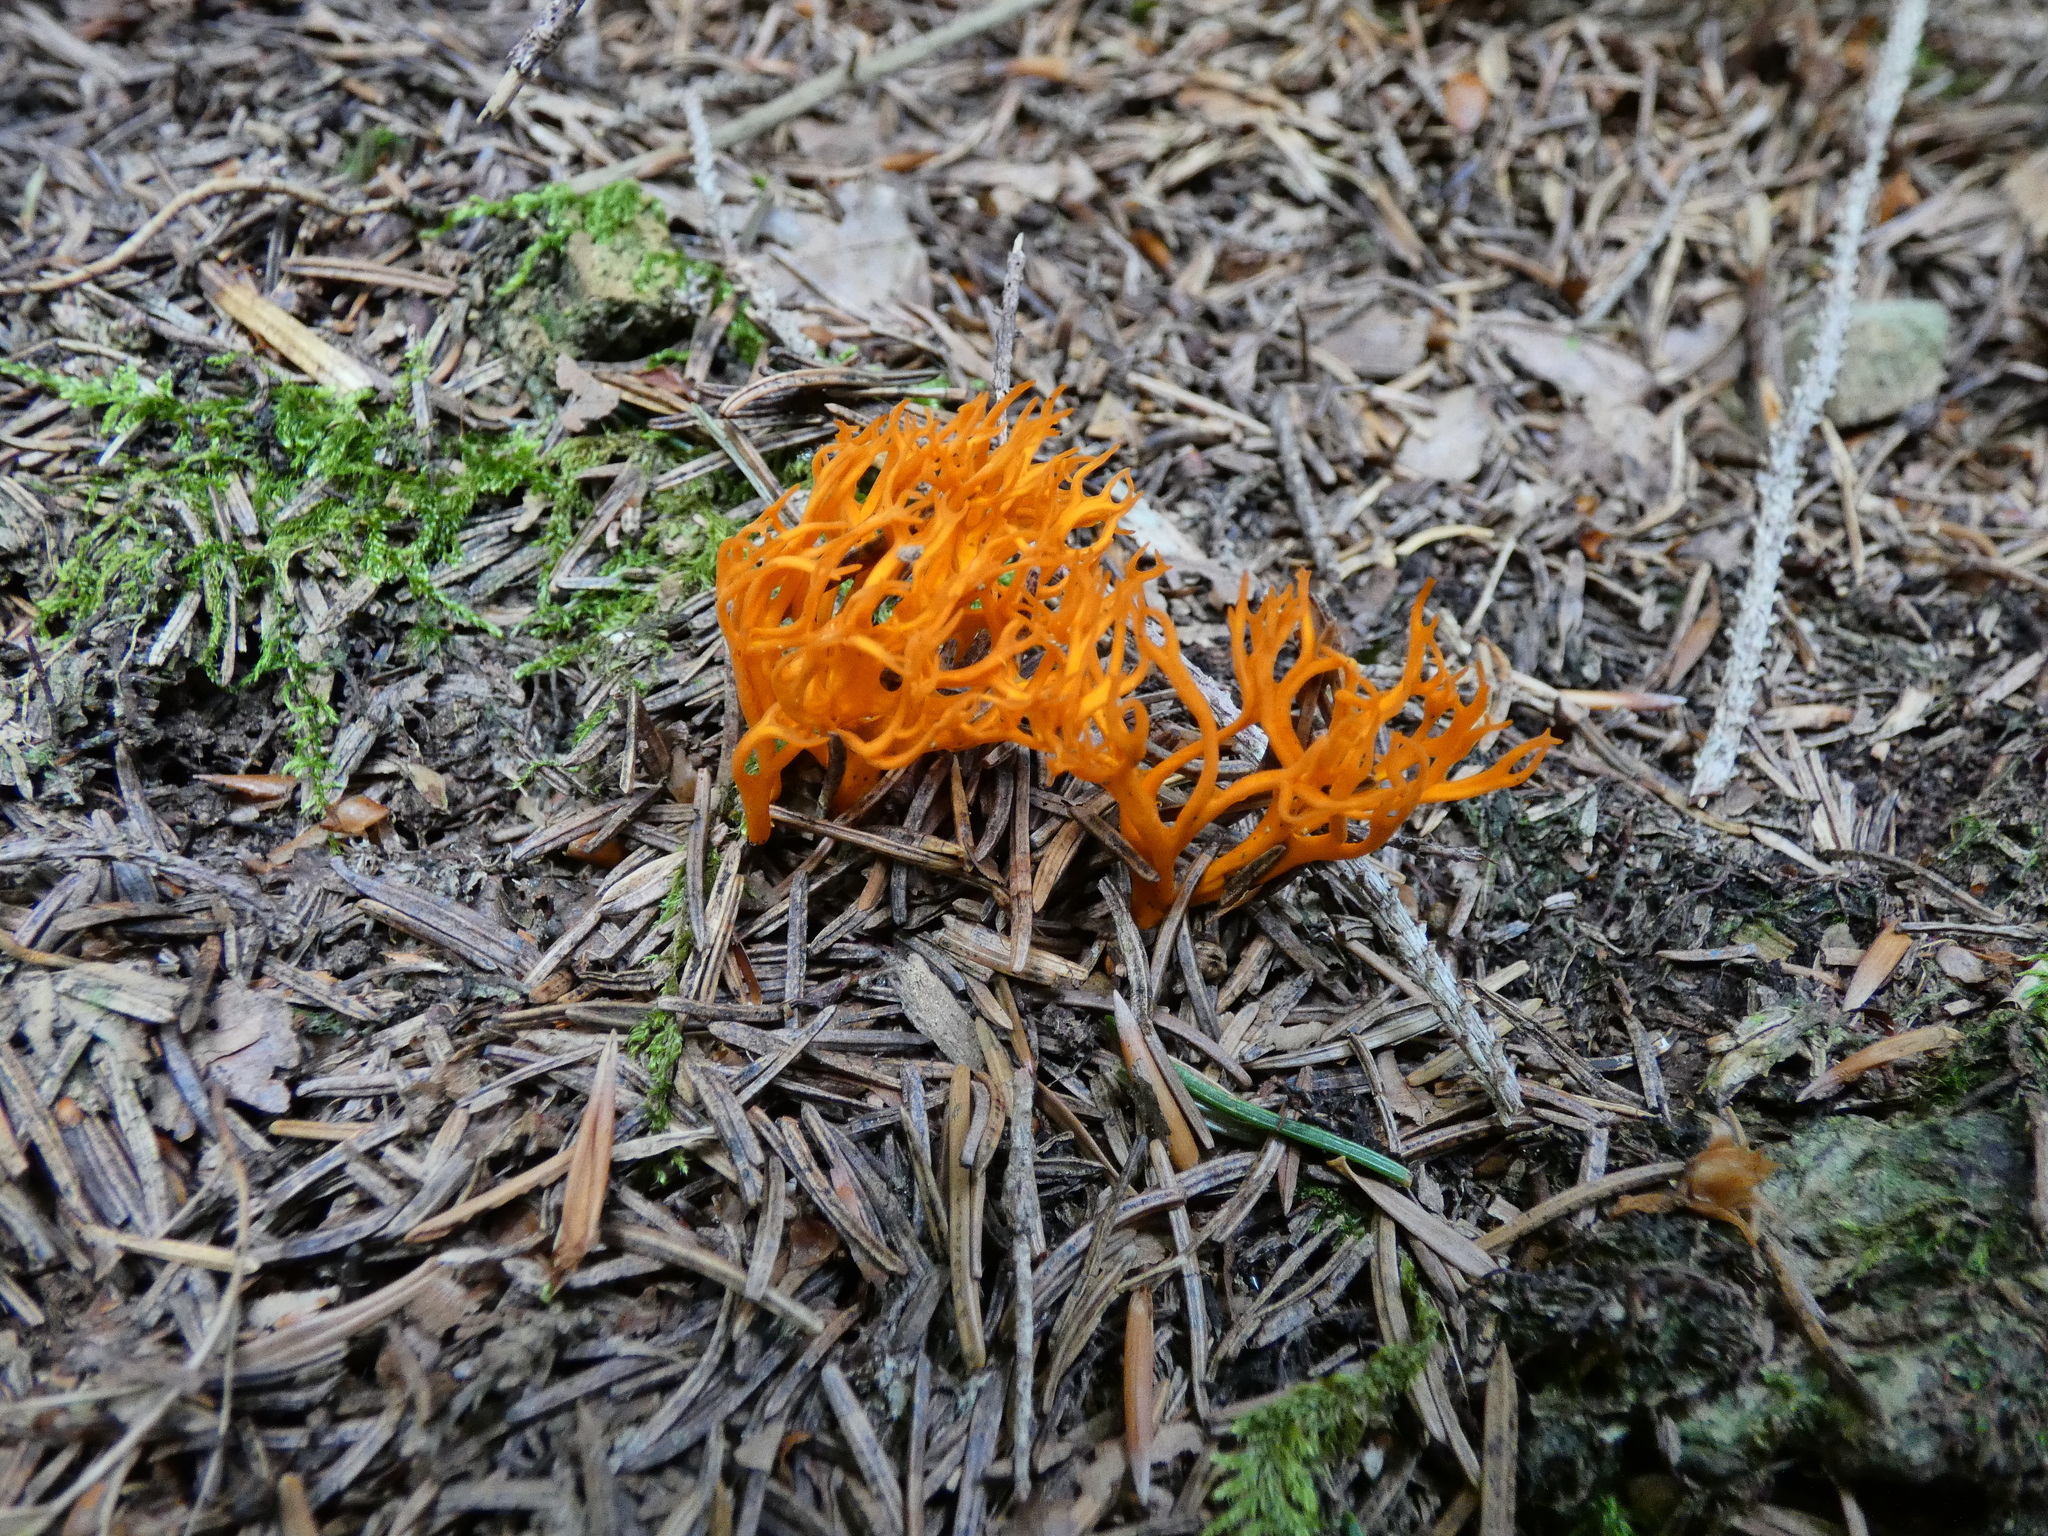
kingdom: Fungi
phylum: Basidiomycota
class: Dacrymycetes
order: Dacrymycetales
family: Dacrymycetaceae
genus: Calocera
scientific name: Calocera viscosa
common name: Yellow stagshorn
